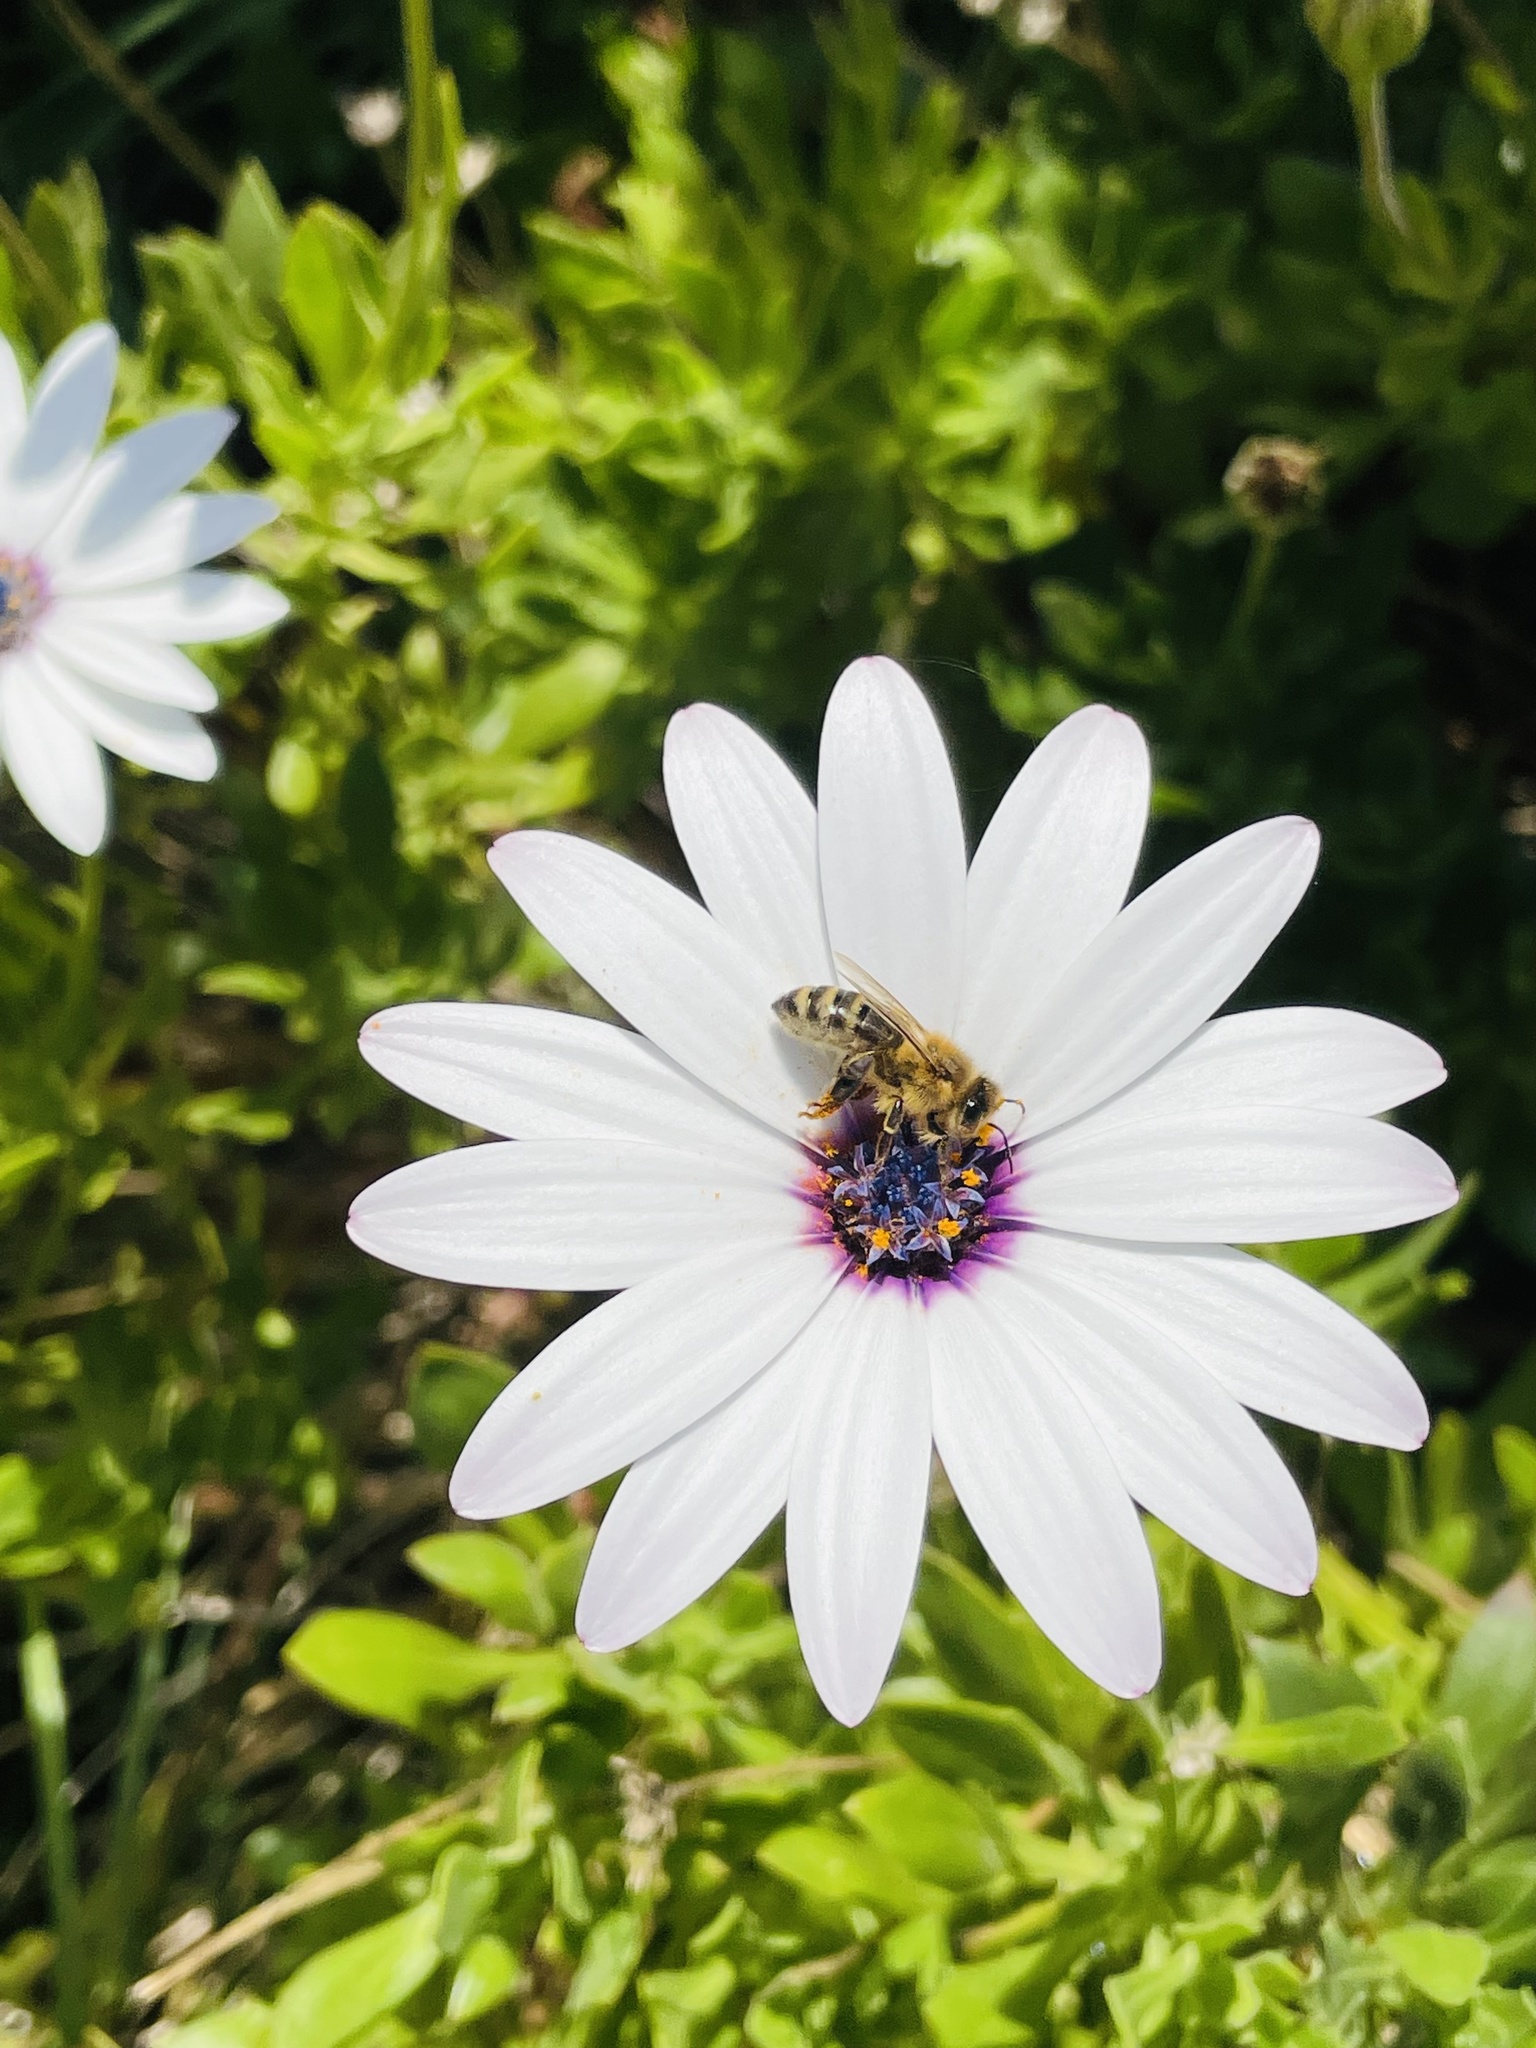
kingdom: Animalia
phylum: Arthropoda
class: Insecta
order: Hymenoptera
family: Apidae
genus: Apis
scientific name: Apis mellifera
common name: Honey bee
